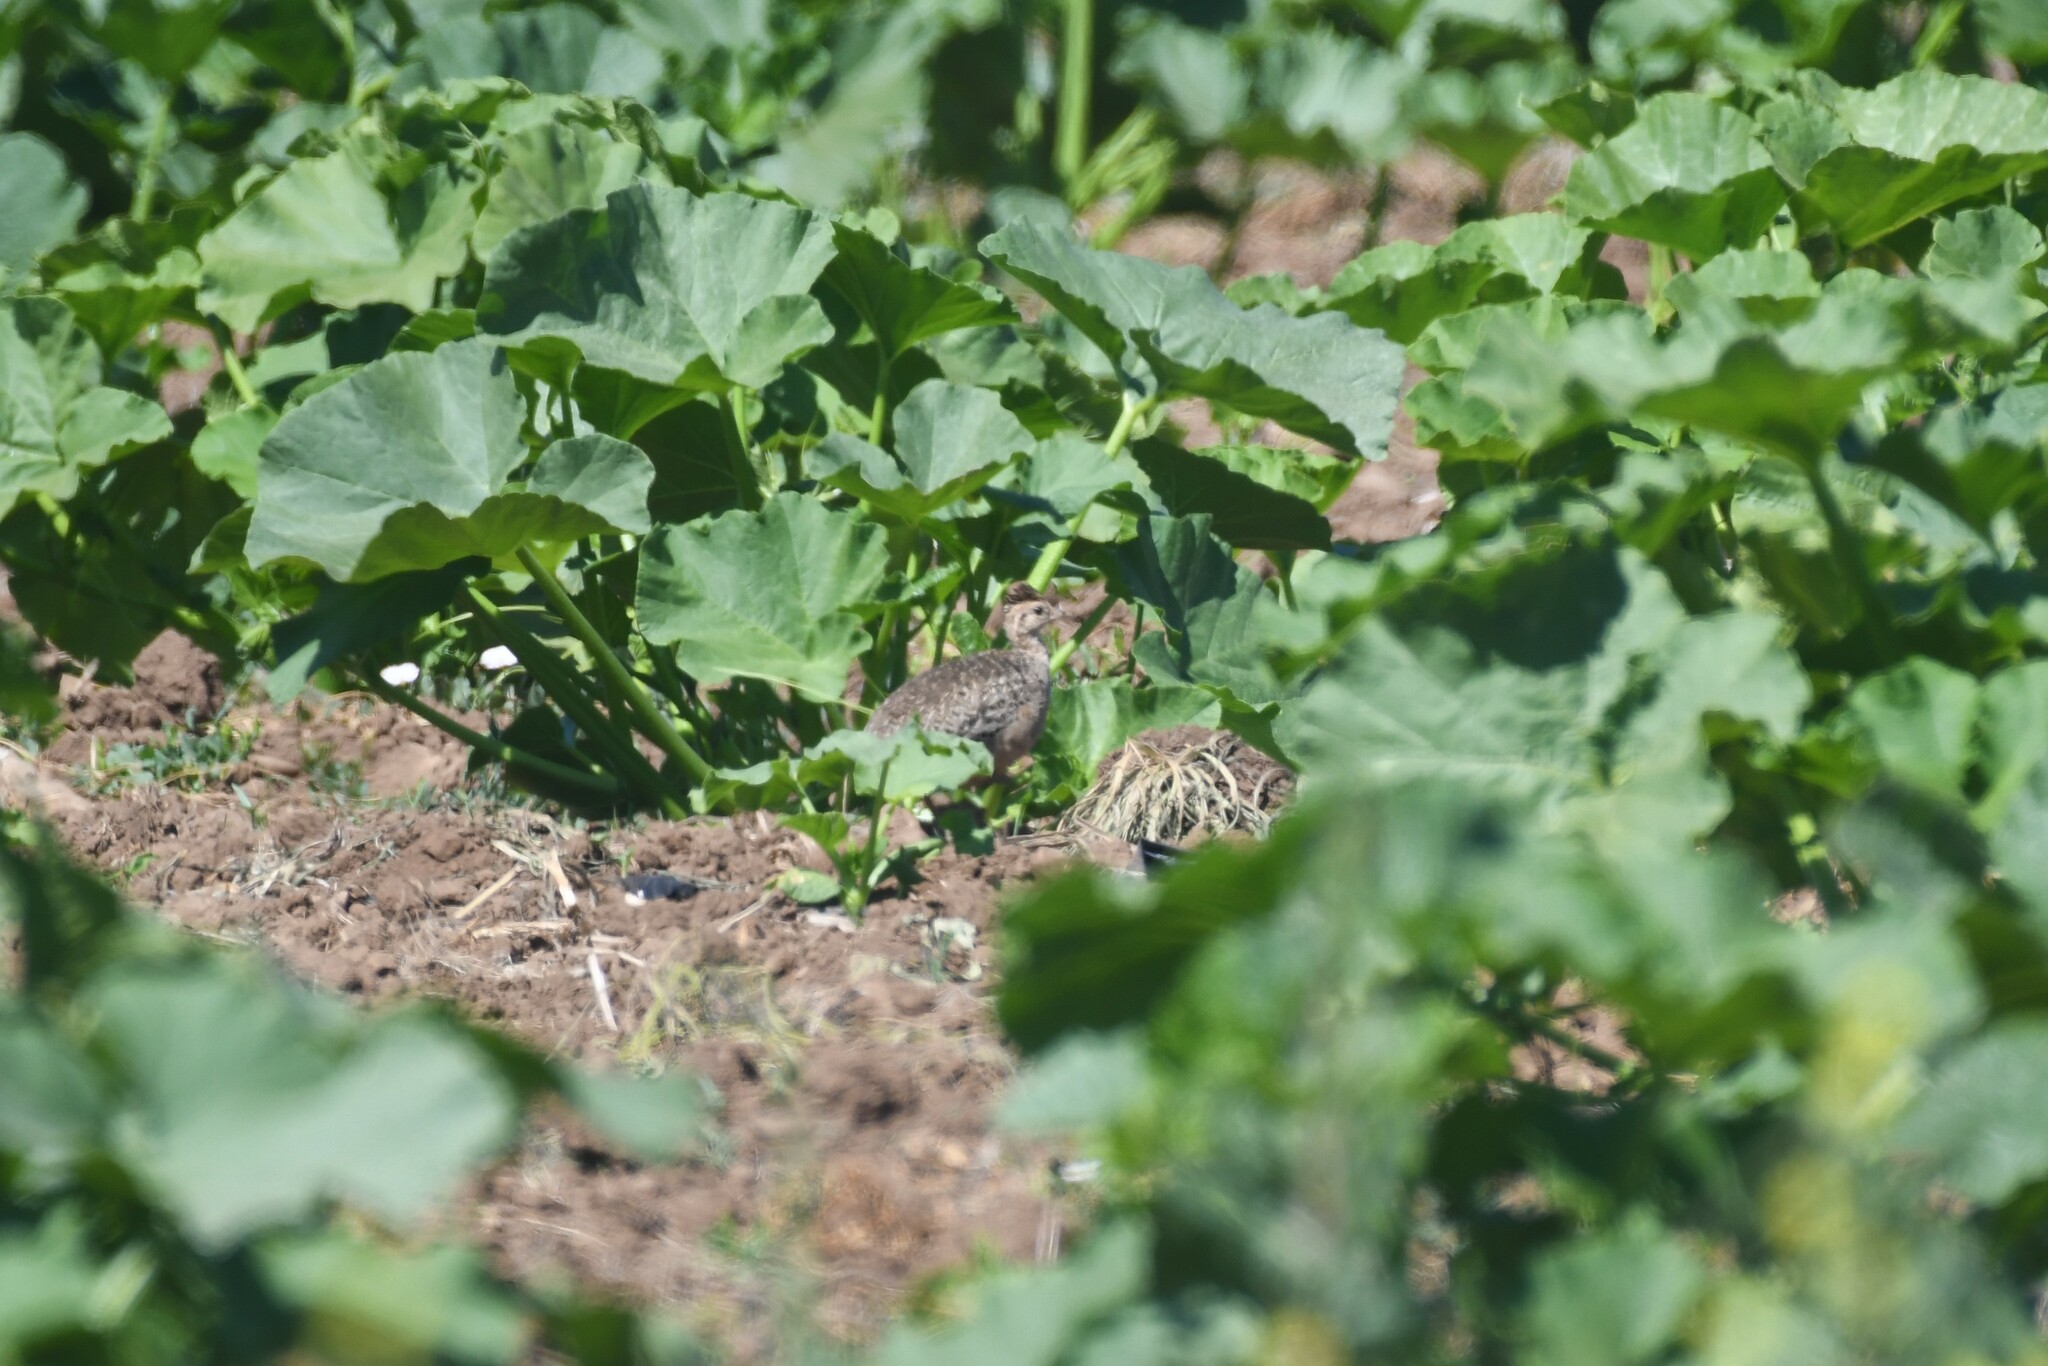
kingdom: Animalia
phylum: Chordata
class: Aves
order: Tinamiformes
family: Tinamidae
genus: Nothoprocta
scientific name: Nothoprocta perdicaria
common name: Chilean tinamou
